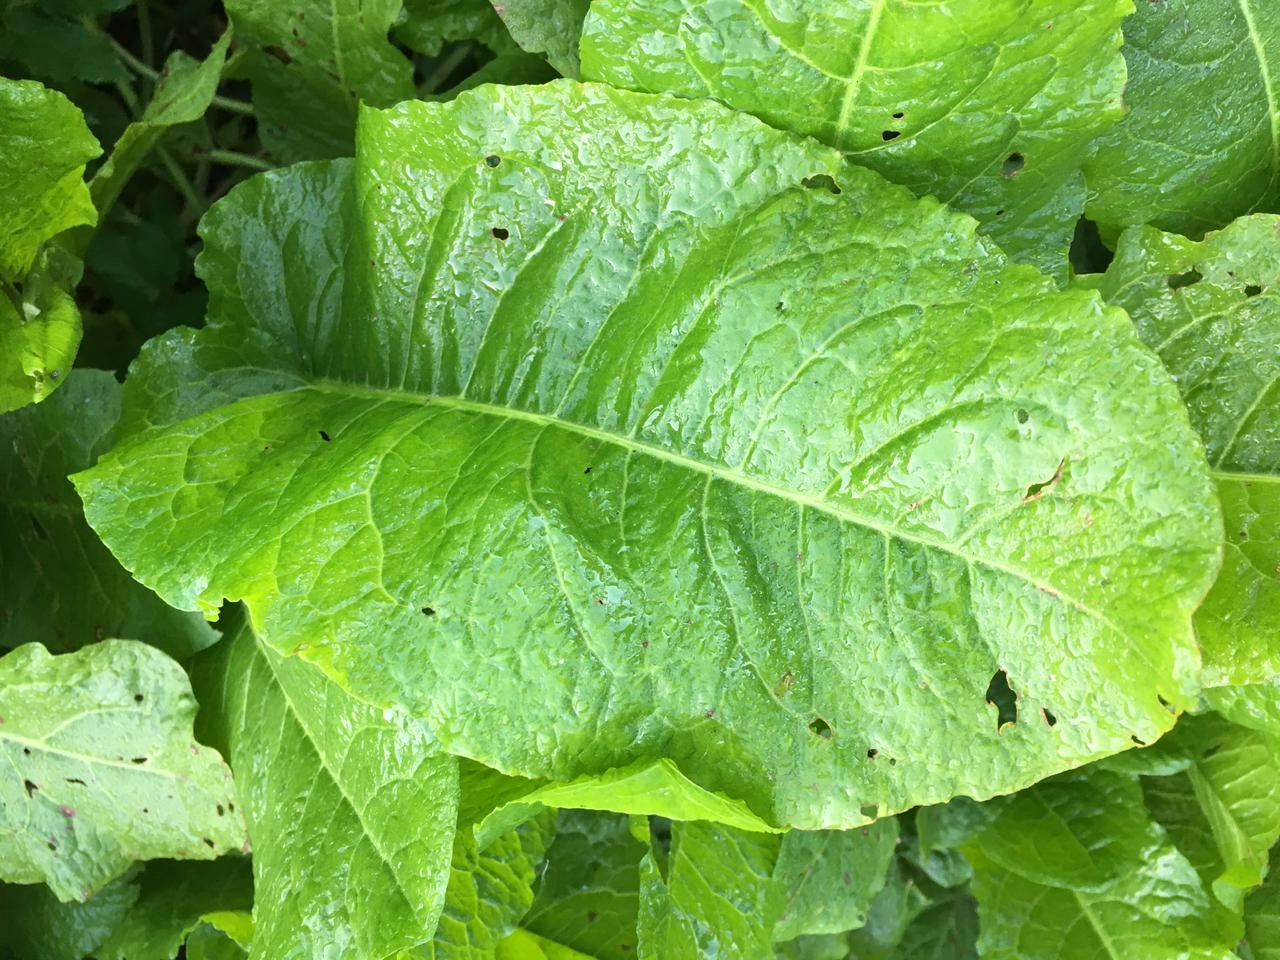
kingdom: Plantae
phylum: Tracheophyta
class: Magnoliopsida
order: Caryophyllales
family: Polygonaceae
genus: Rumex
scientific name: Rumex obtusifolius
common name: Bitter dock
